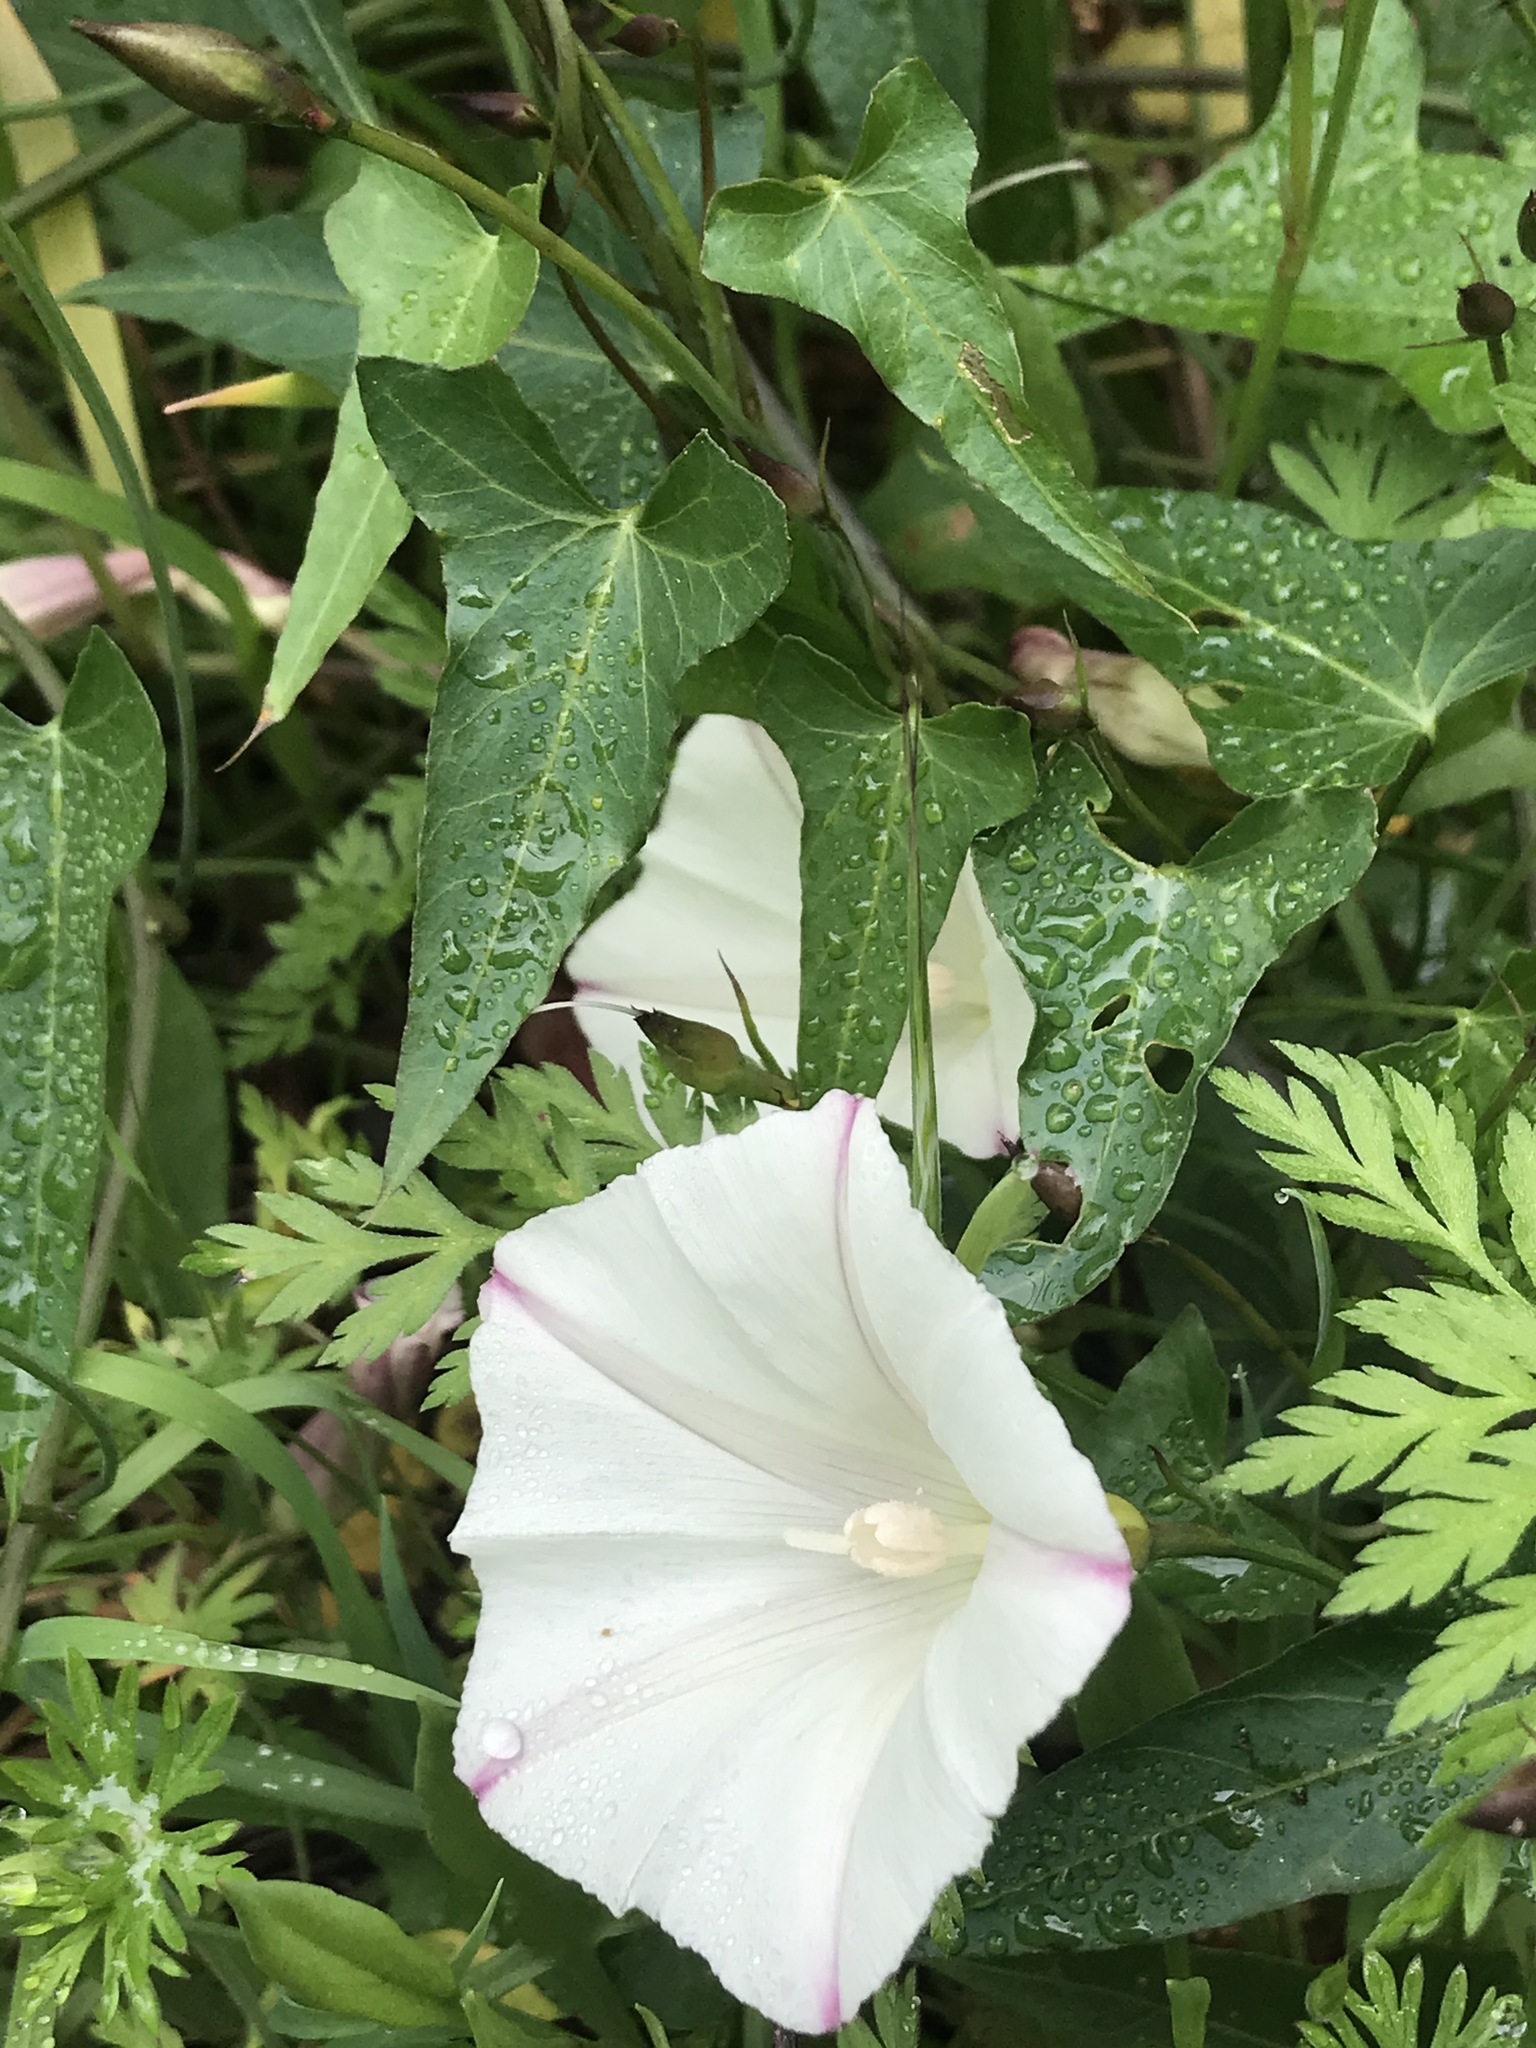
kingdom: Plantae
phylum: Tracheophyta
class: Magnoliopsida
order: Solanales
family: Convolvulaceae
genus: Calystegia
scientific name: Calystegia purpurata
